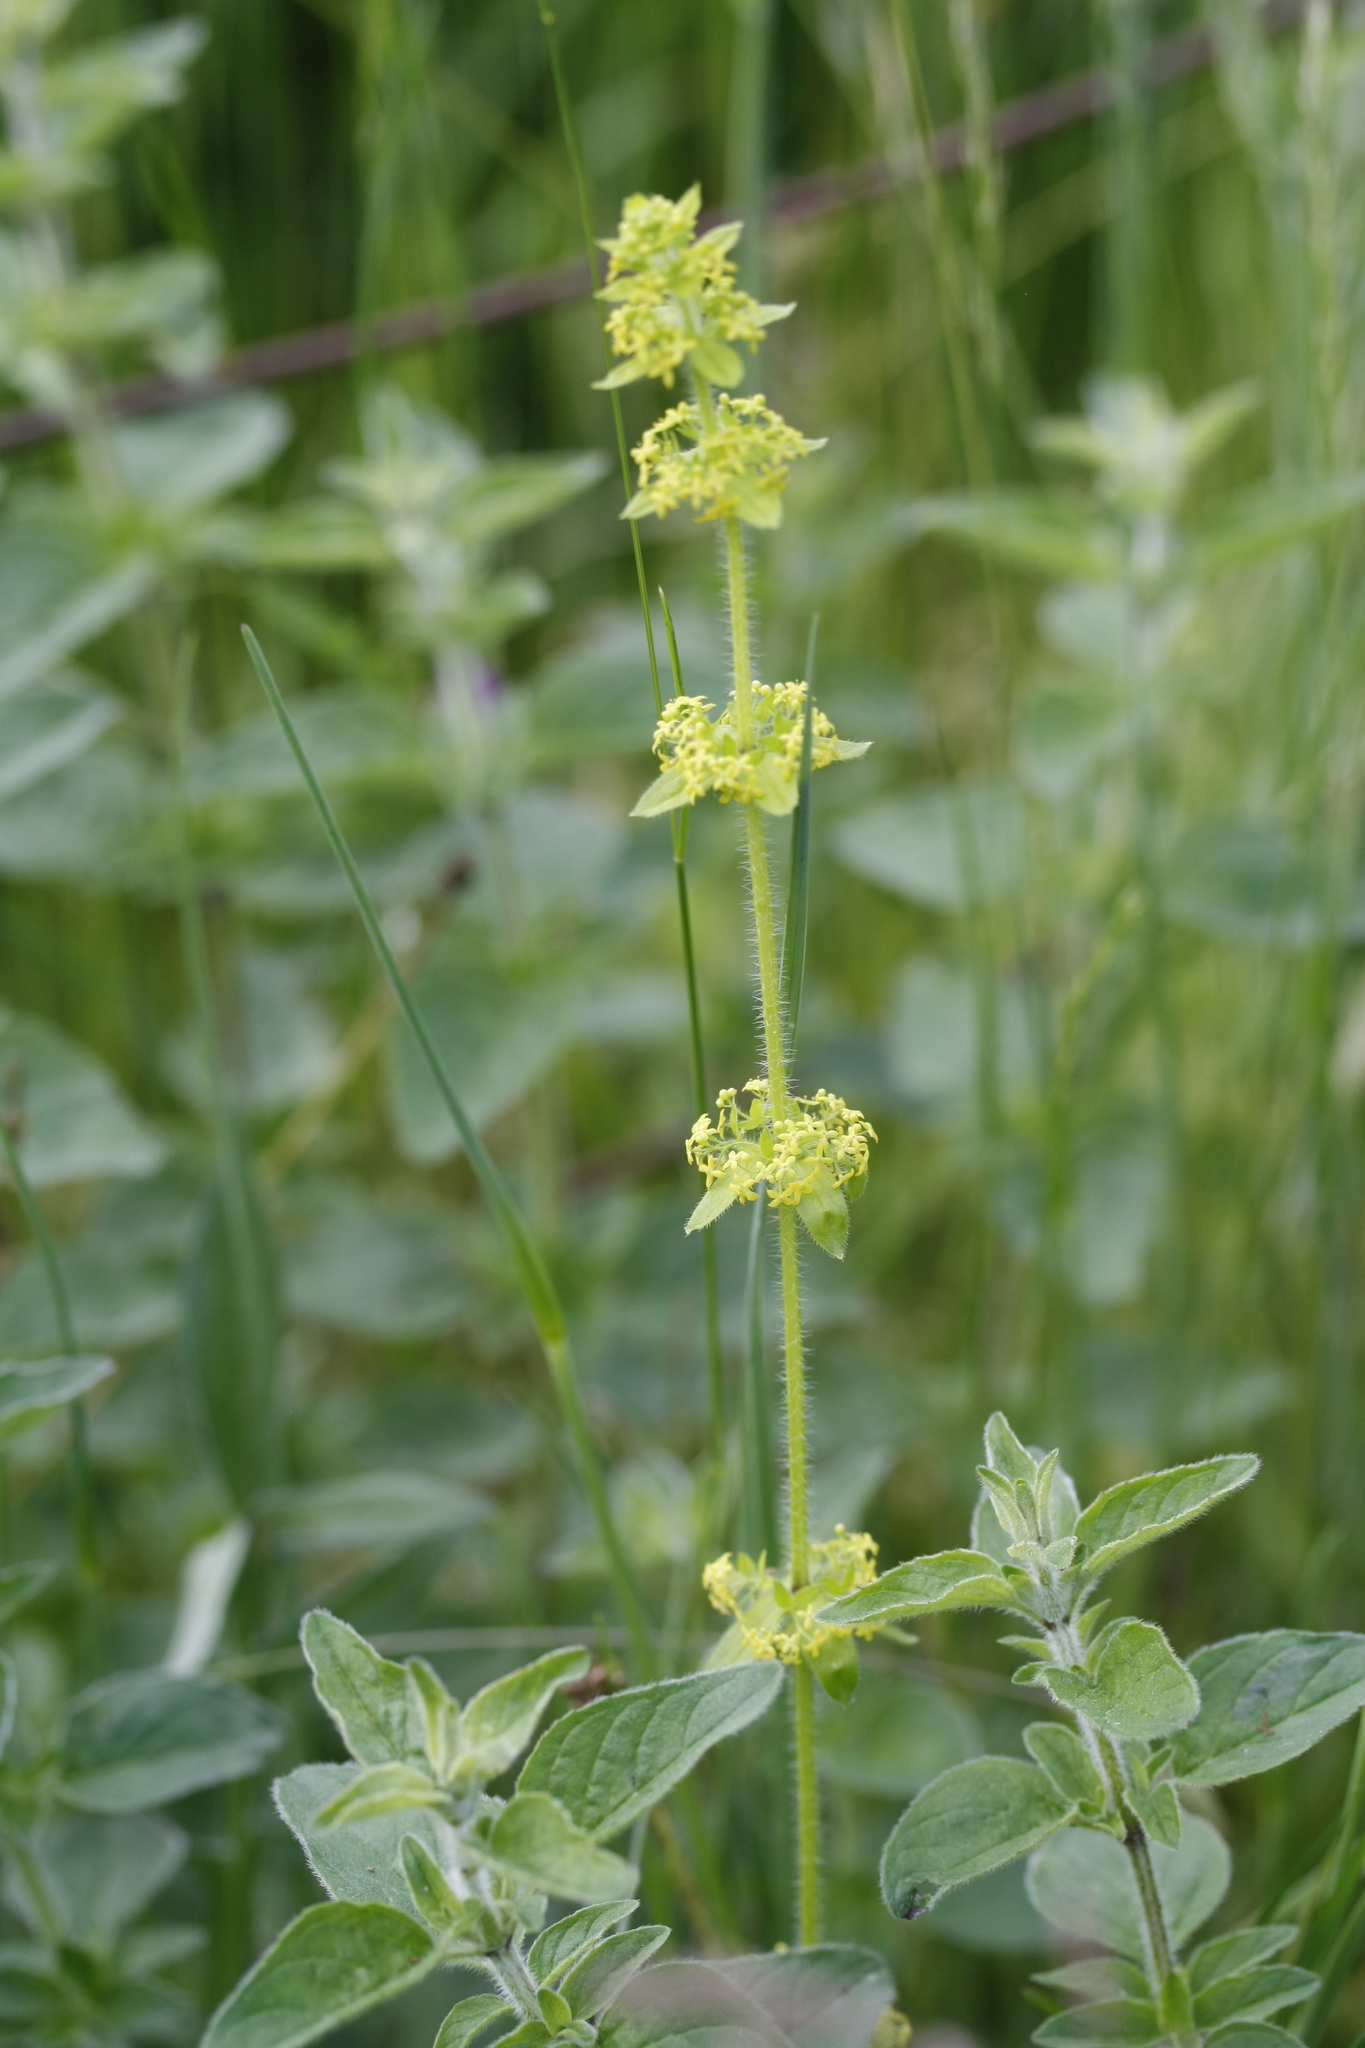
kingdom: Plantae
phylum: Tracheophyta
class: Magnoliopsida
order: Gentianales
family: Rubiaceae
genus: Cruciata
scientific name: Cruciata laevipes
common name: Crosswort
